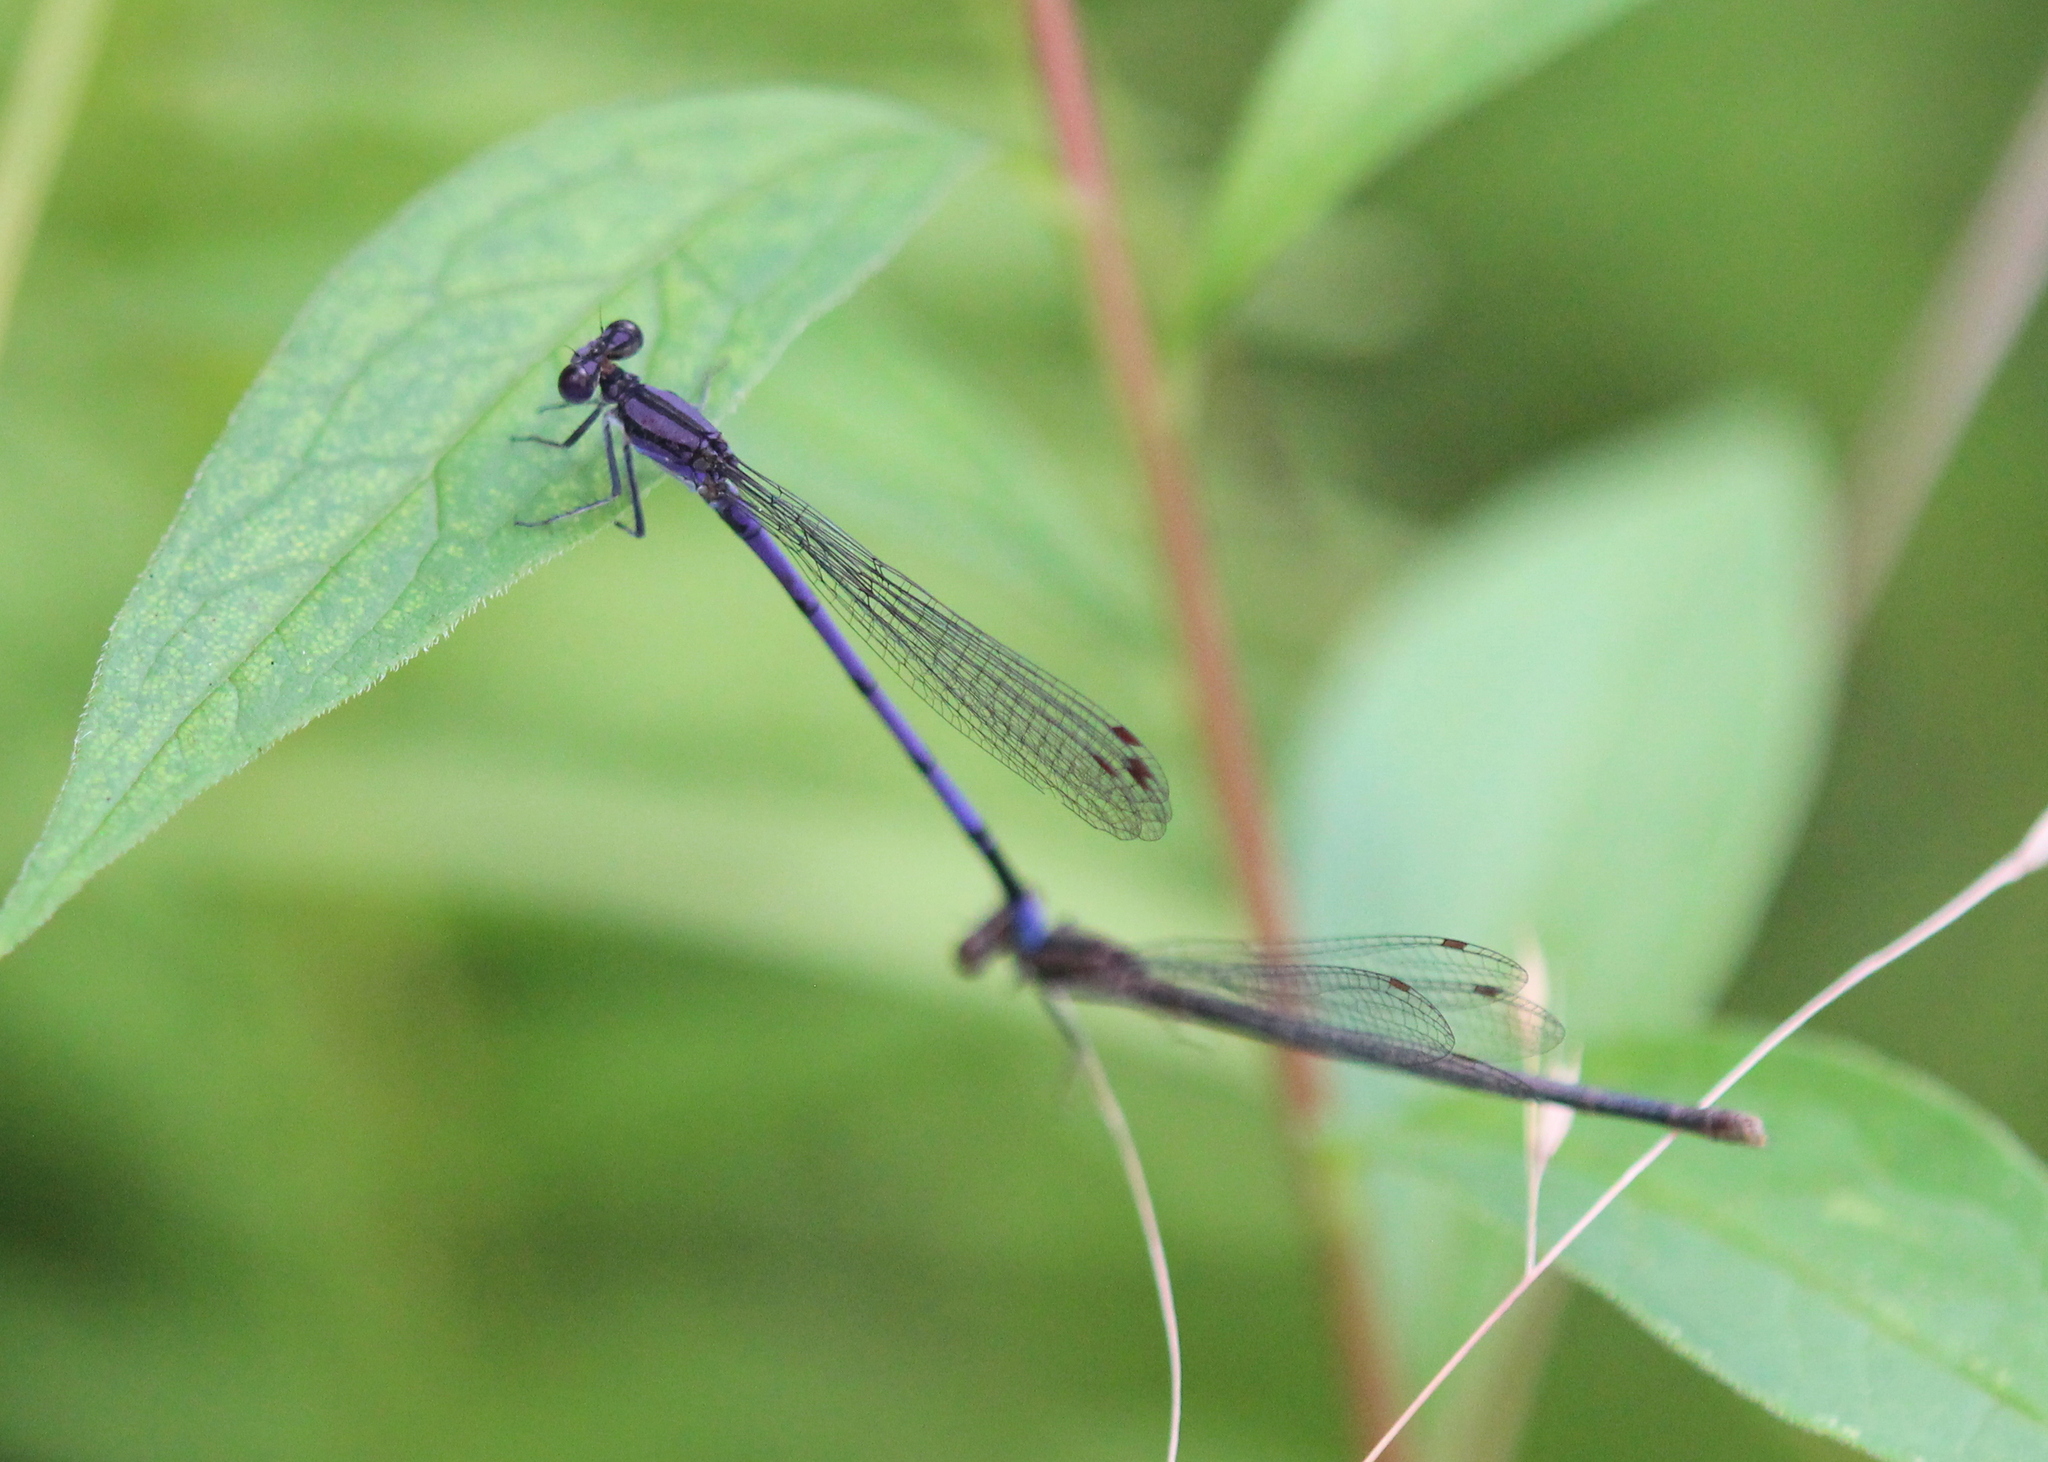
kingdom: Animalia
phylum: Arthropoda
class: Insecta
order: Odonata
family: Coenagrionidae
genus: Argia
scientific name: Argia fumipennis
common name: Variable dancer
